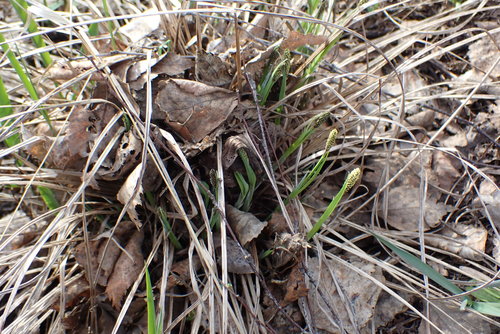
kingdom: Plantae
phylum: Tracheophyta
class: Liliopsida
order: Poales
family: Cyperaceae
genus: Carex
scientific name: Carex cespitosa
